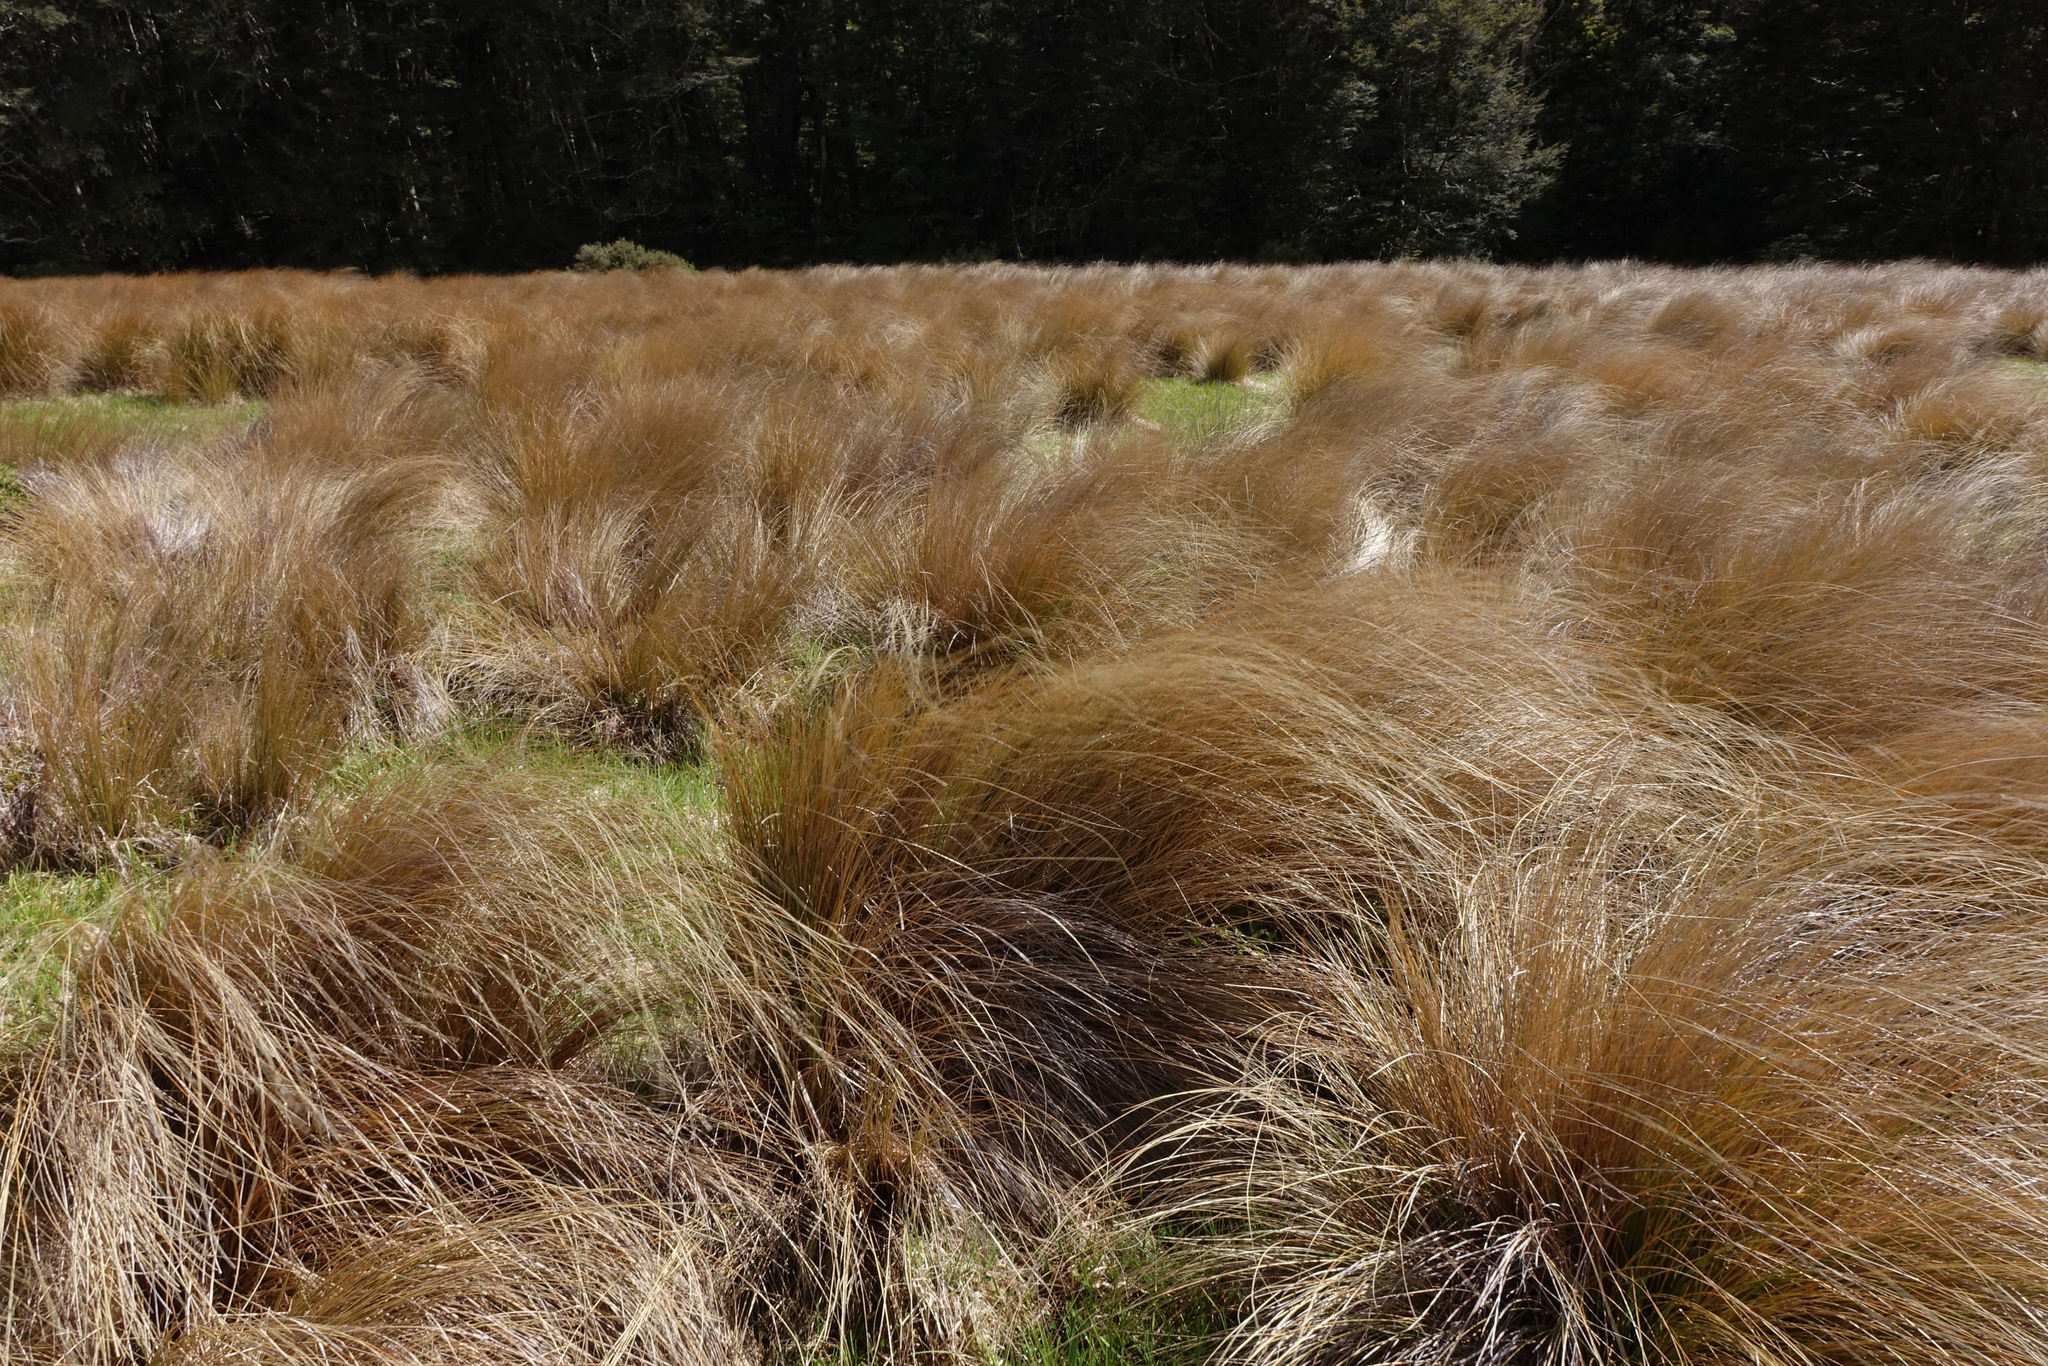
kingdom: Plantae
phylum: Tracheophyta
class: Liliopsida
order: Poales
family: Poaceae
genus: Chionochloa
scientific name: Chionochloa rubra
